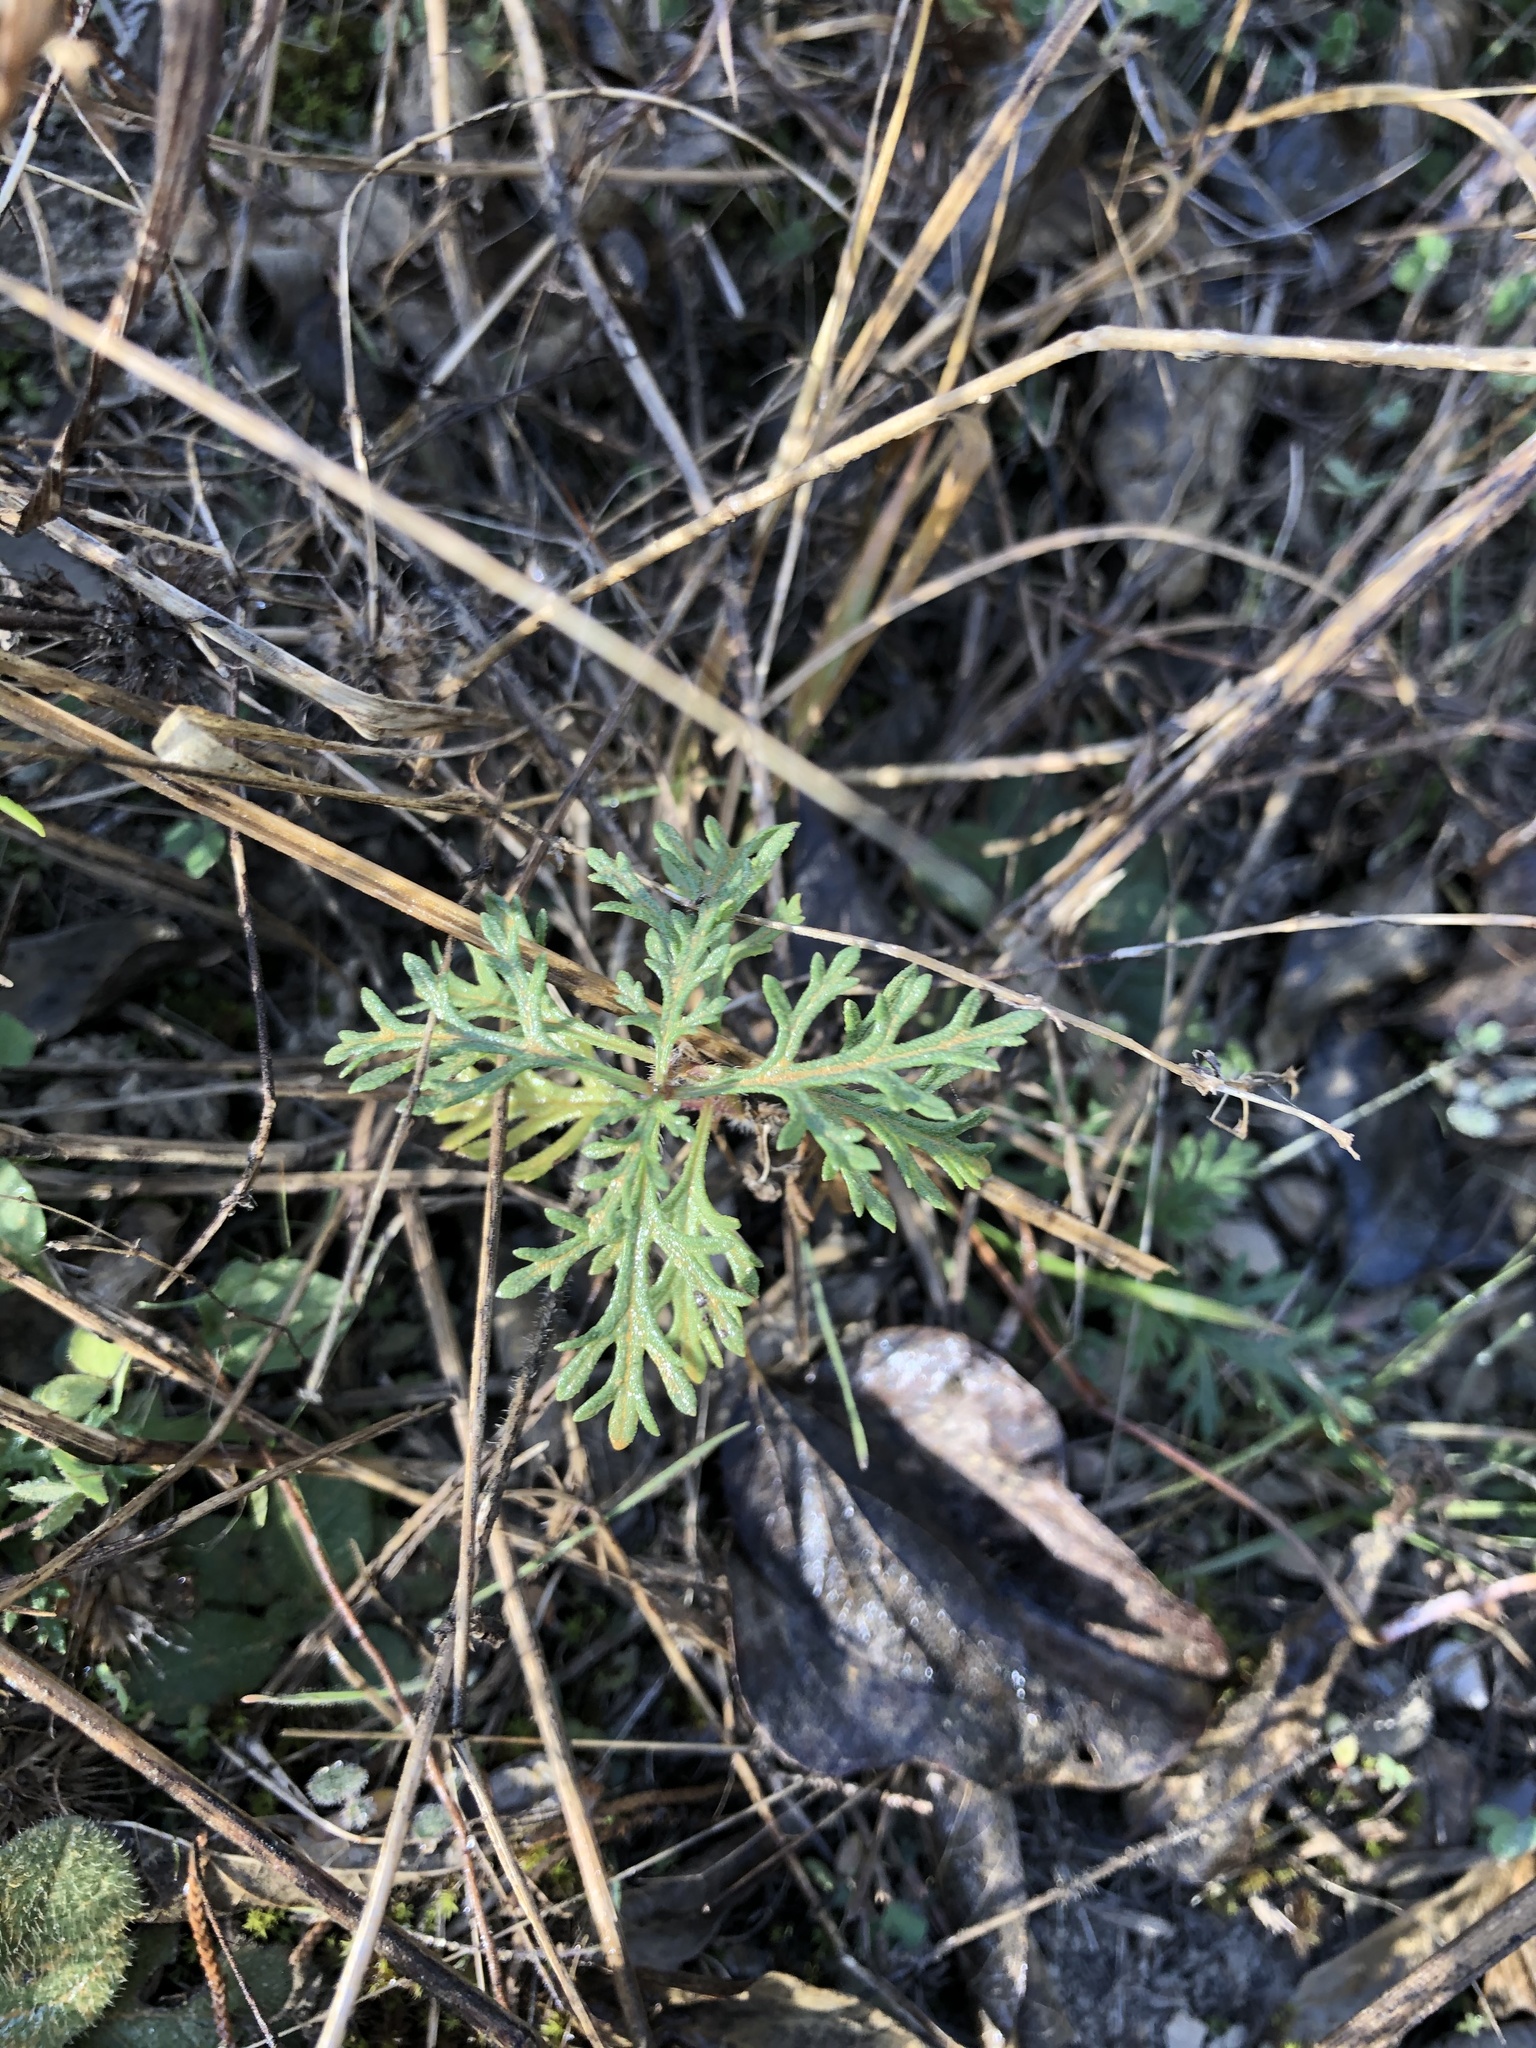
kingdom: Plantae
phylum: Tracheophyta
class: Magnoliopsida
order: Lamiales
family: Verbenaceae
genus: Verbena
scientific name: Verbena bipinnatifida
